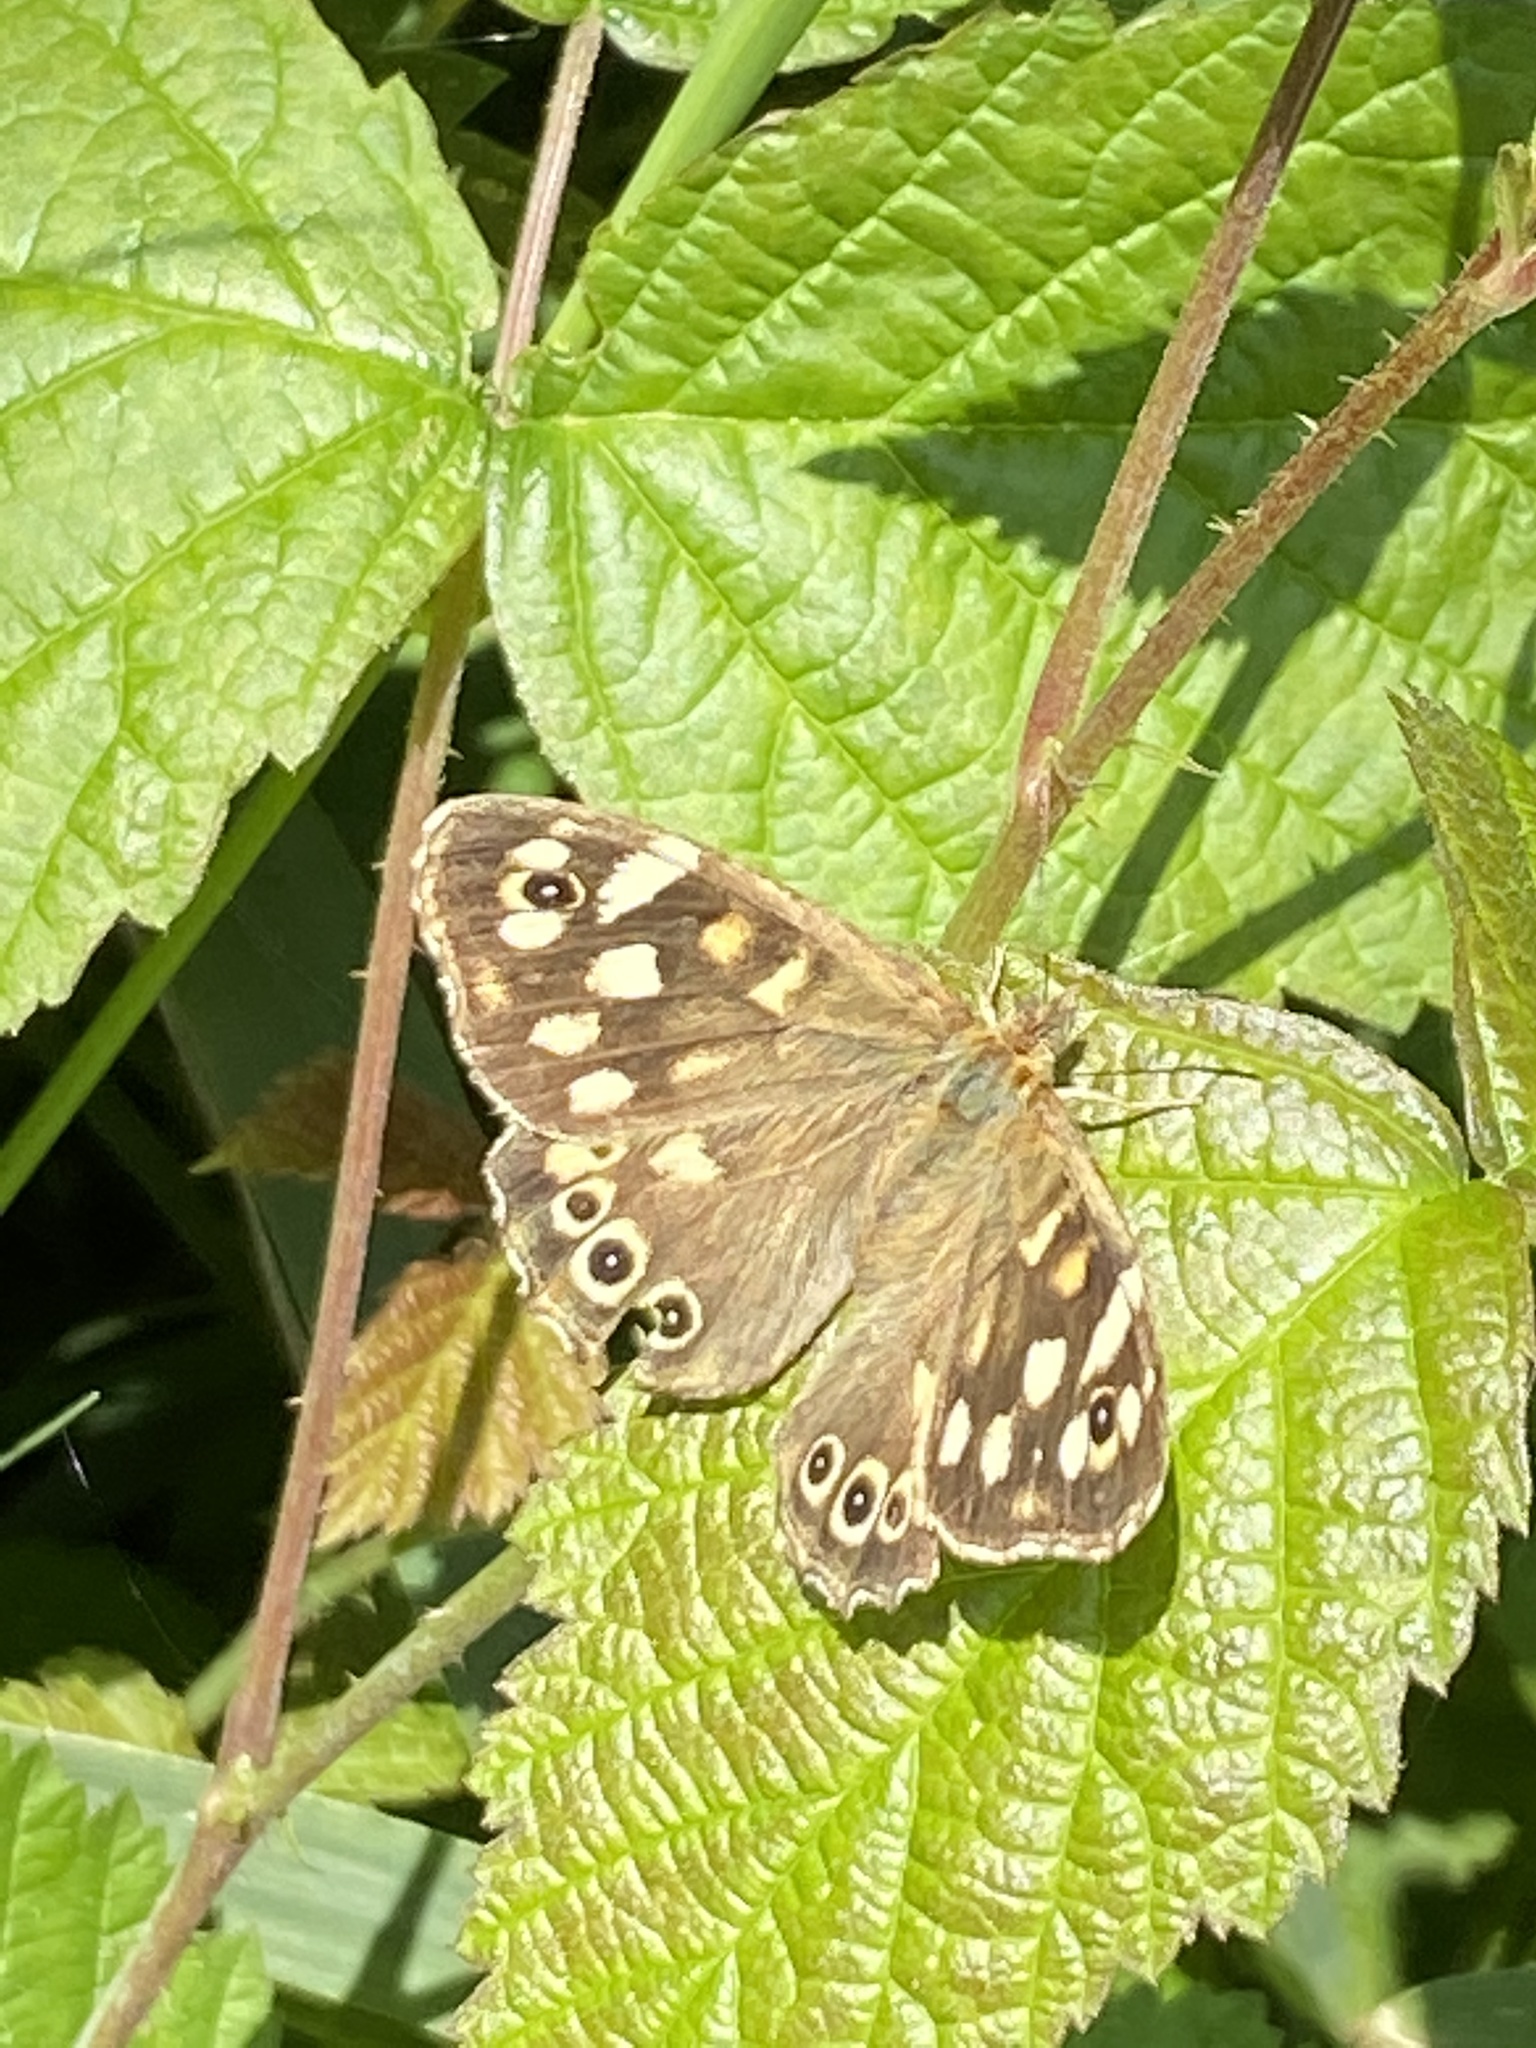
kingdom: Animalia
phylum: Arthropoda
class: Insecta
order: Lepidoptera
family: Nymphalidae
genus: Pararge
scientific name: Pararge aegeria
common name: Speckled wood
